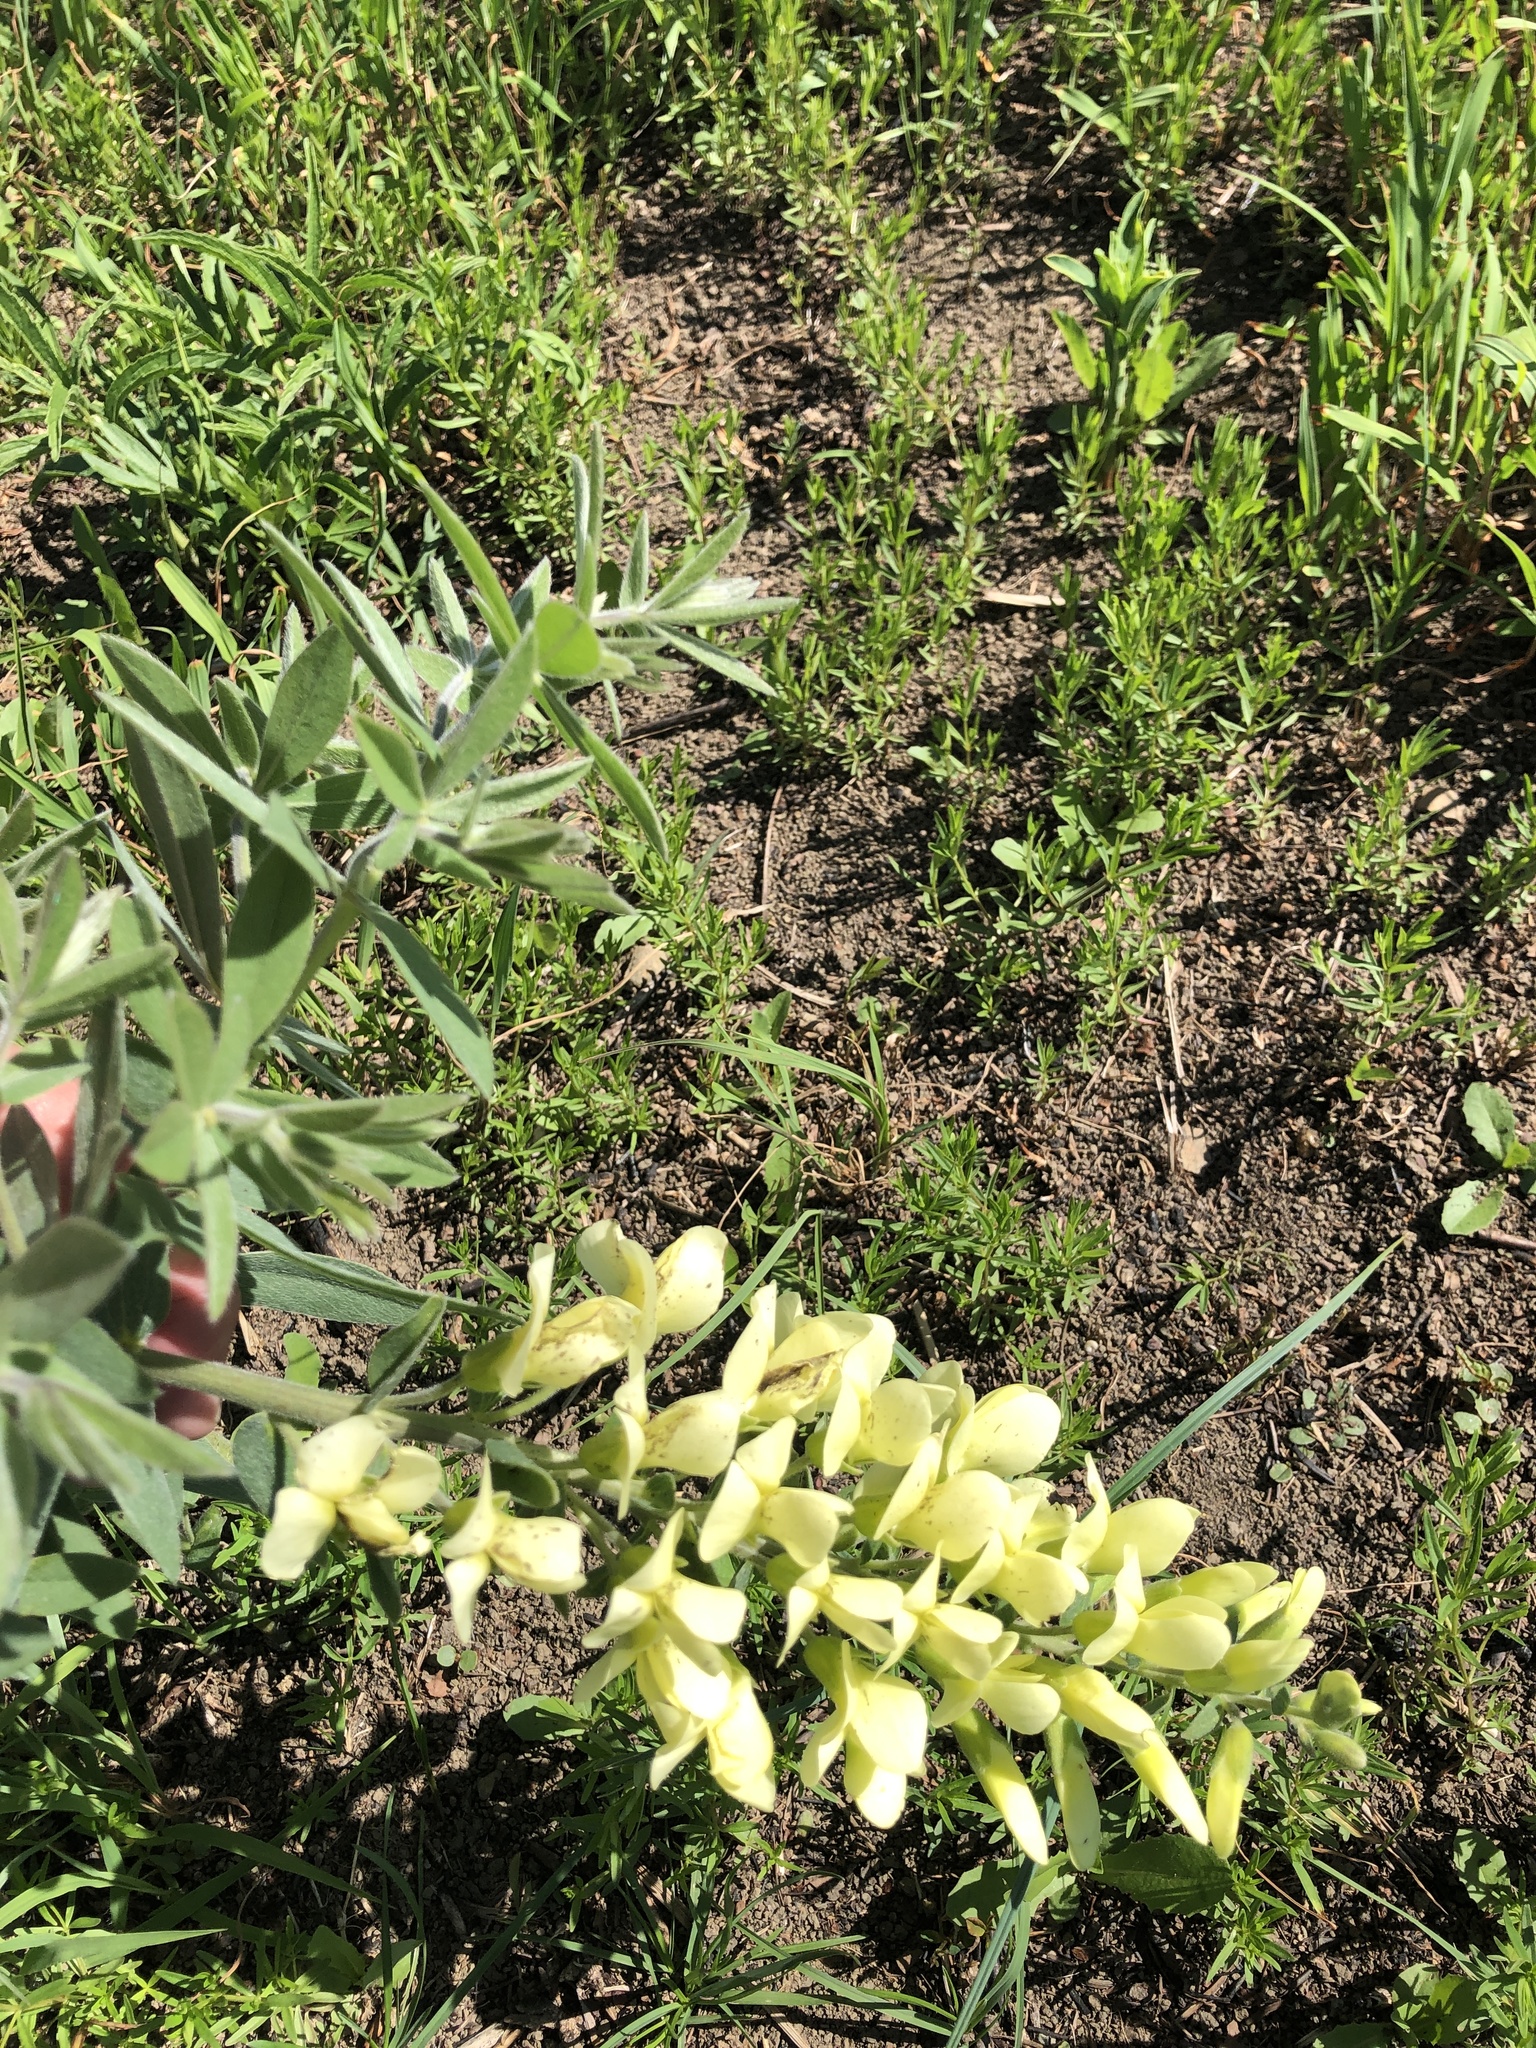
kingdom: Plantae
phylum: Tracheophyta
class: Magnoliopsida
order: Fabales
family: Fabaceae
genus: Baptisia
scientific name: Baptisia bracteata
